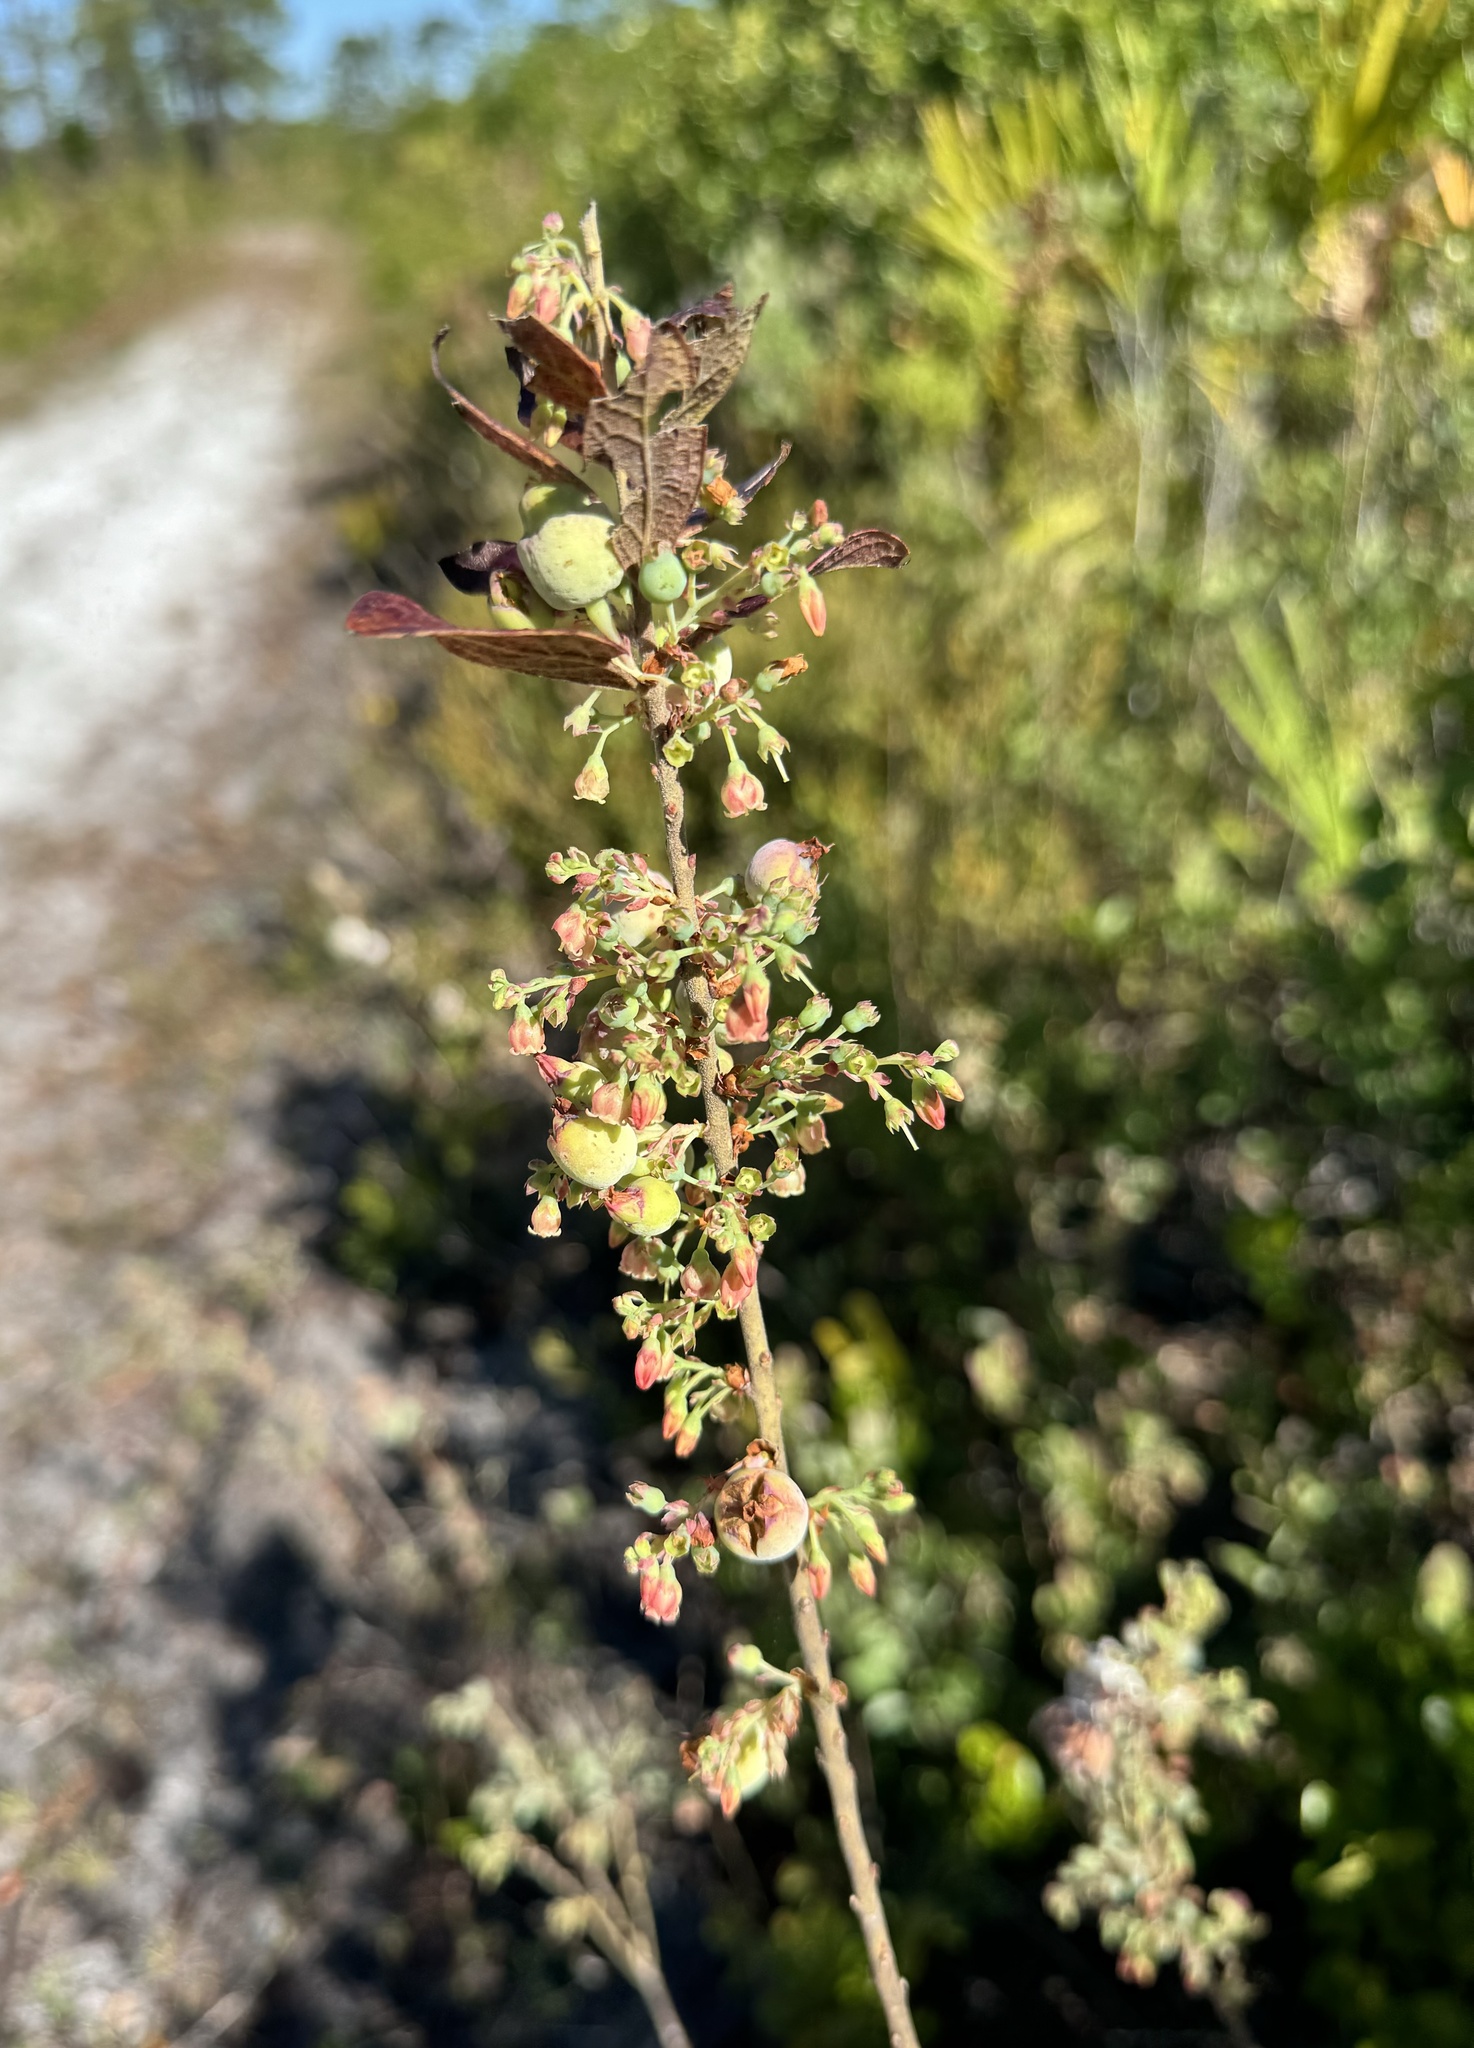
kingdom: Plantae
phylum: Tracheophyta
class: Magnoliopsida
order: Ericales
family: Ericaceae
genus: Gaylussacia
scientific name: Gaylussacia tomentosa
